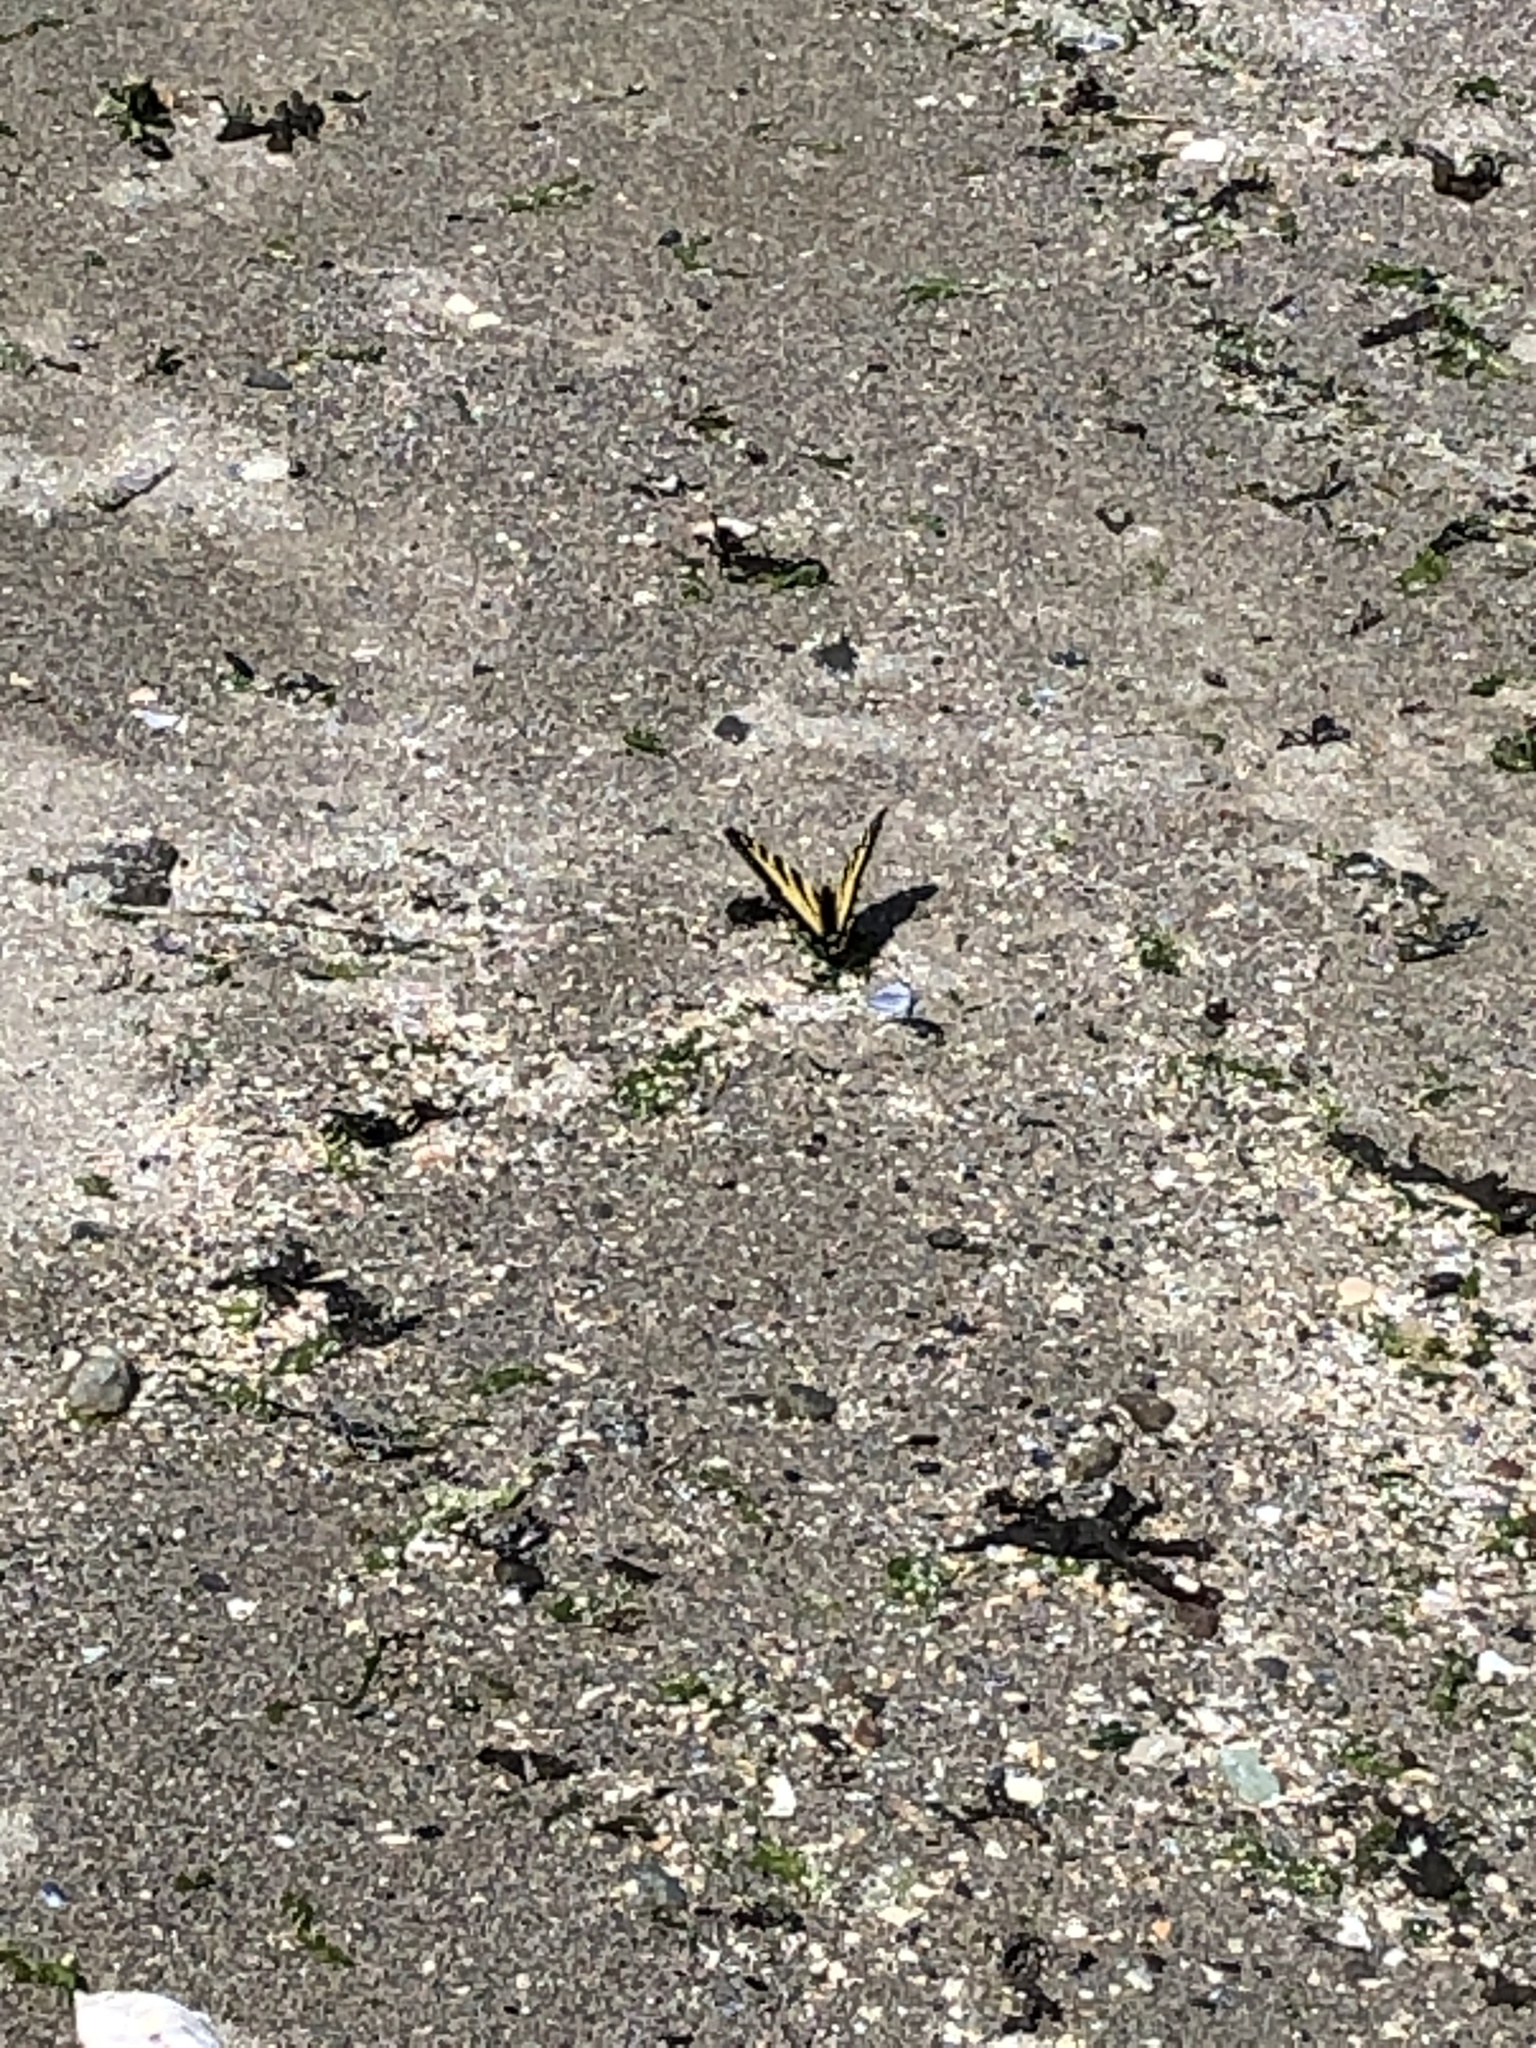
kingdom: Animalia
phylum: Arthropoda
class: Insecta
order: Lepidoptera
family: Papilionidae
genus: Papilio
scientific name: Papilio rutulus
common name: Western tiger swallowtail
